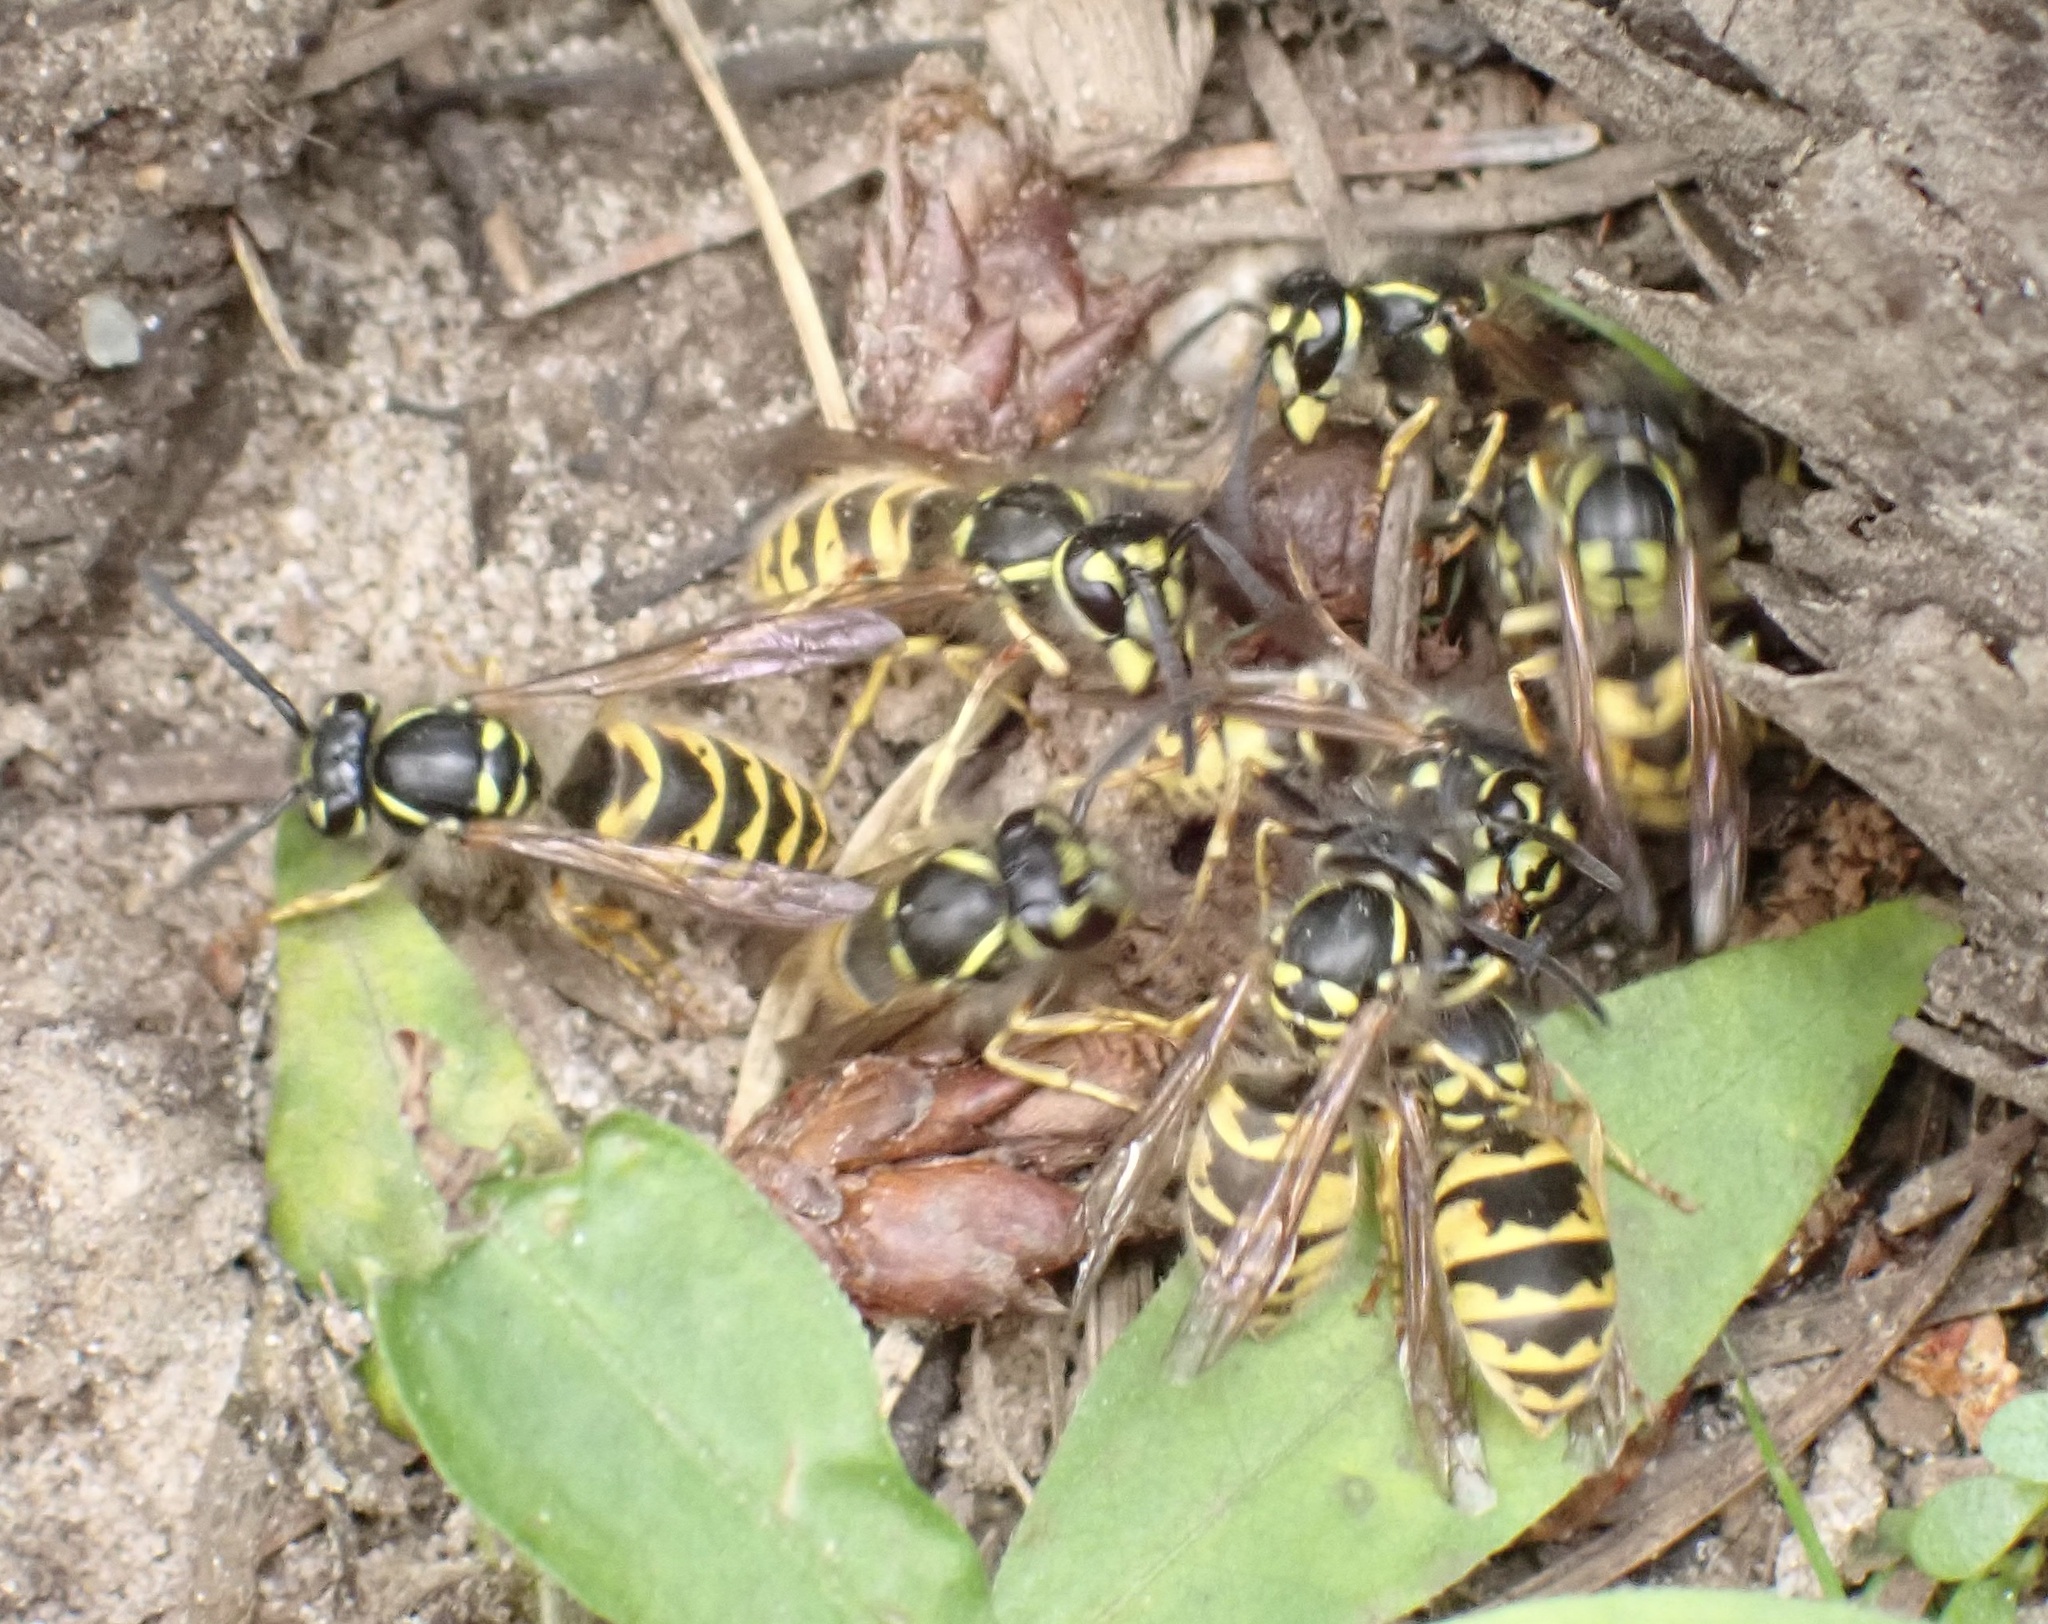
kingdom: Animalia
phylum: Arthropoda
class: Insecta
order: Hymenoptera
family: Vespidae
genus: Vespula
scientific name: Vespula vulgaris
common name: Common wasp
